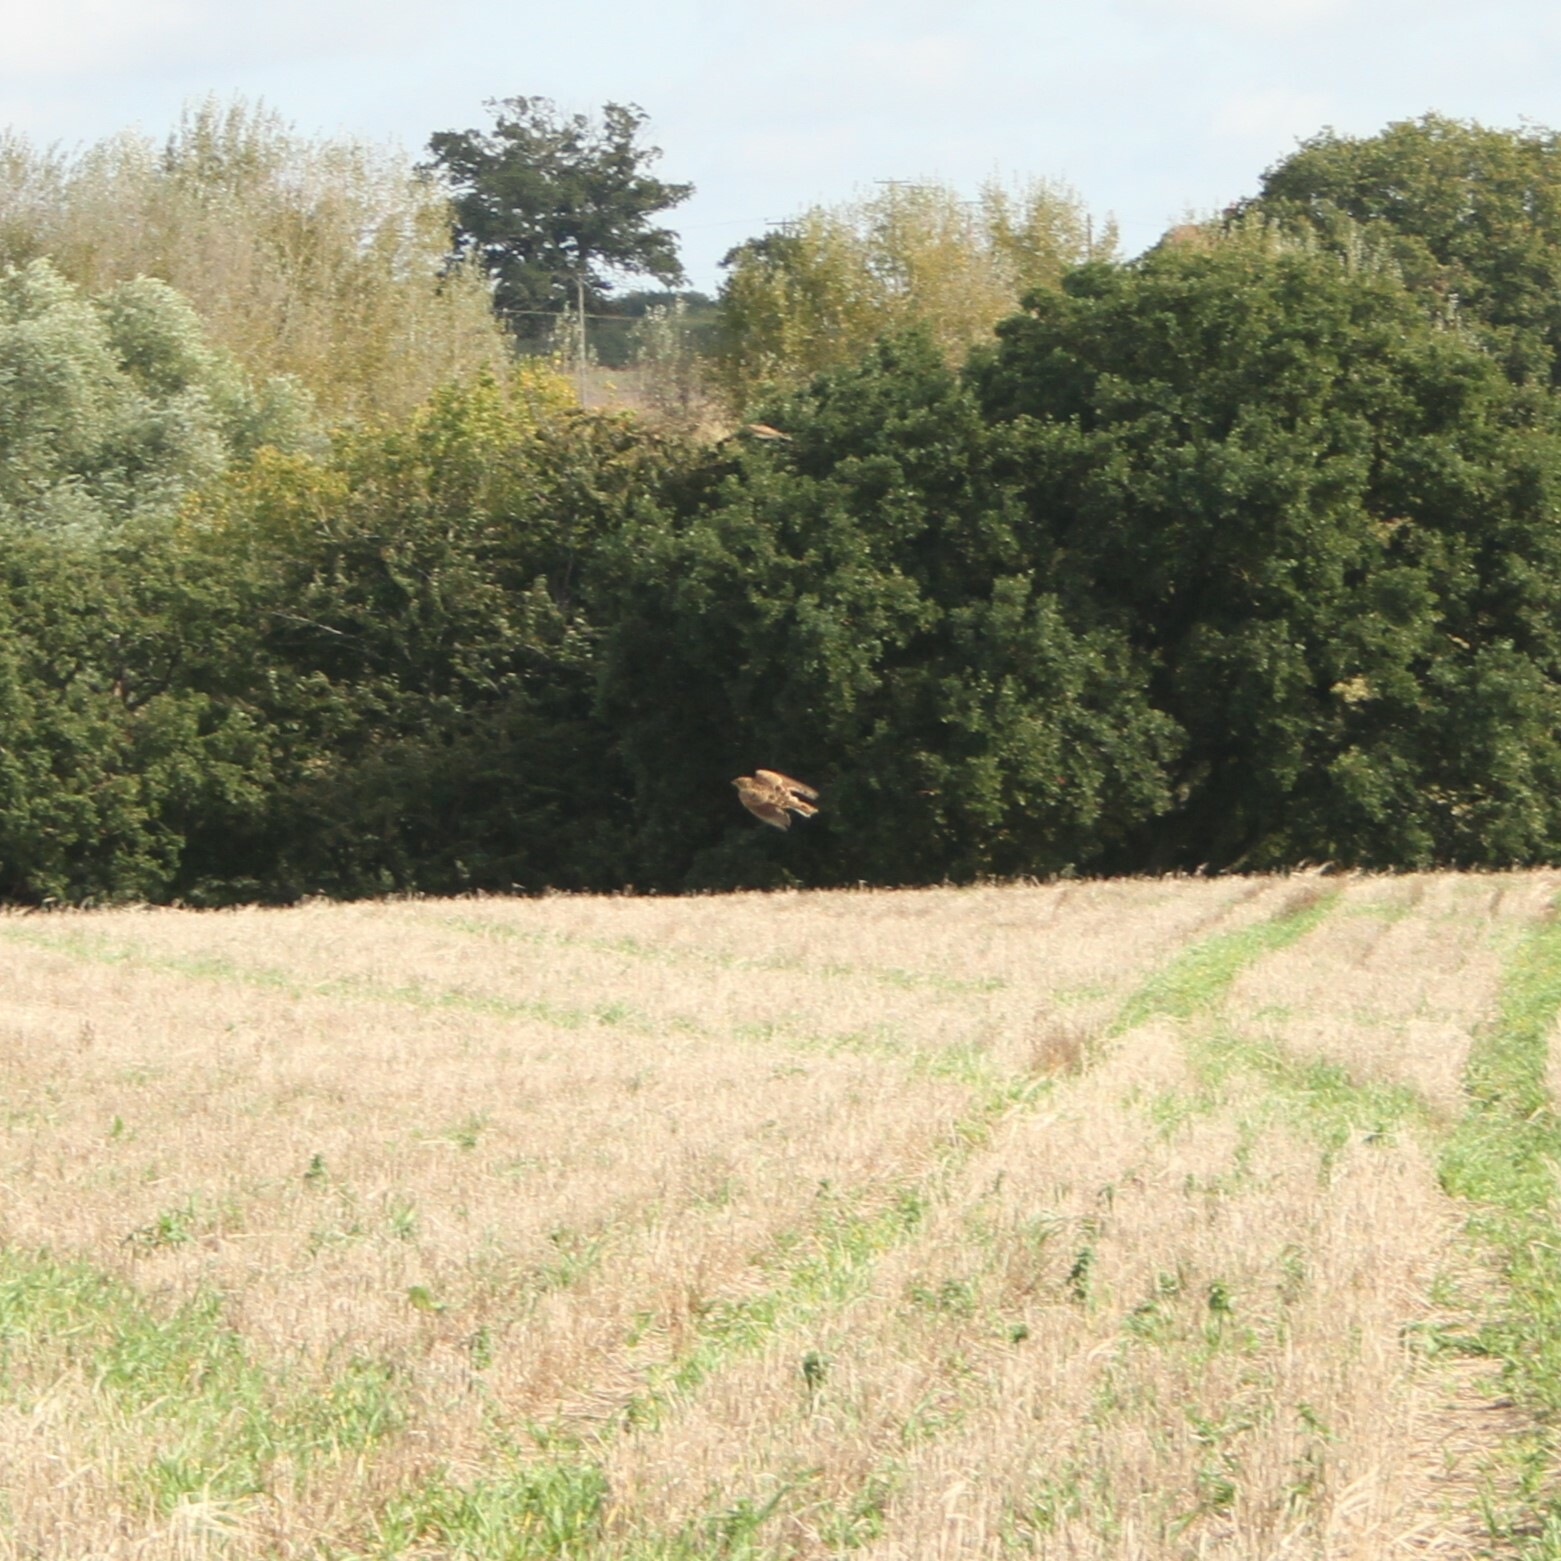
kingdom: Animalia
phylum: Chordata
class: Aves
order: Passeriformes
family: Alaudidae
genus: Alauda
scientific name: Alauda arvensis
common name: Eurasian skylark
